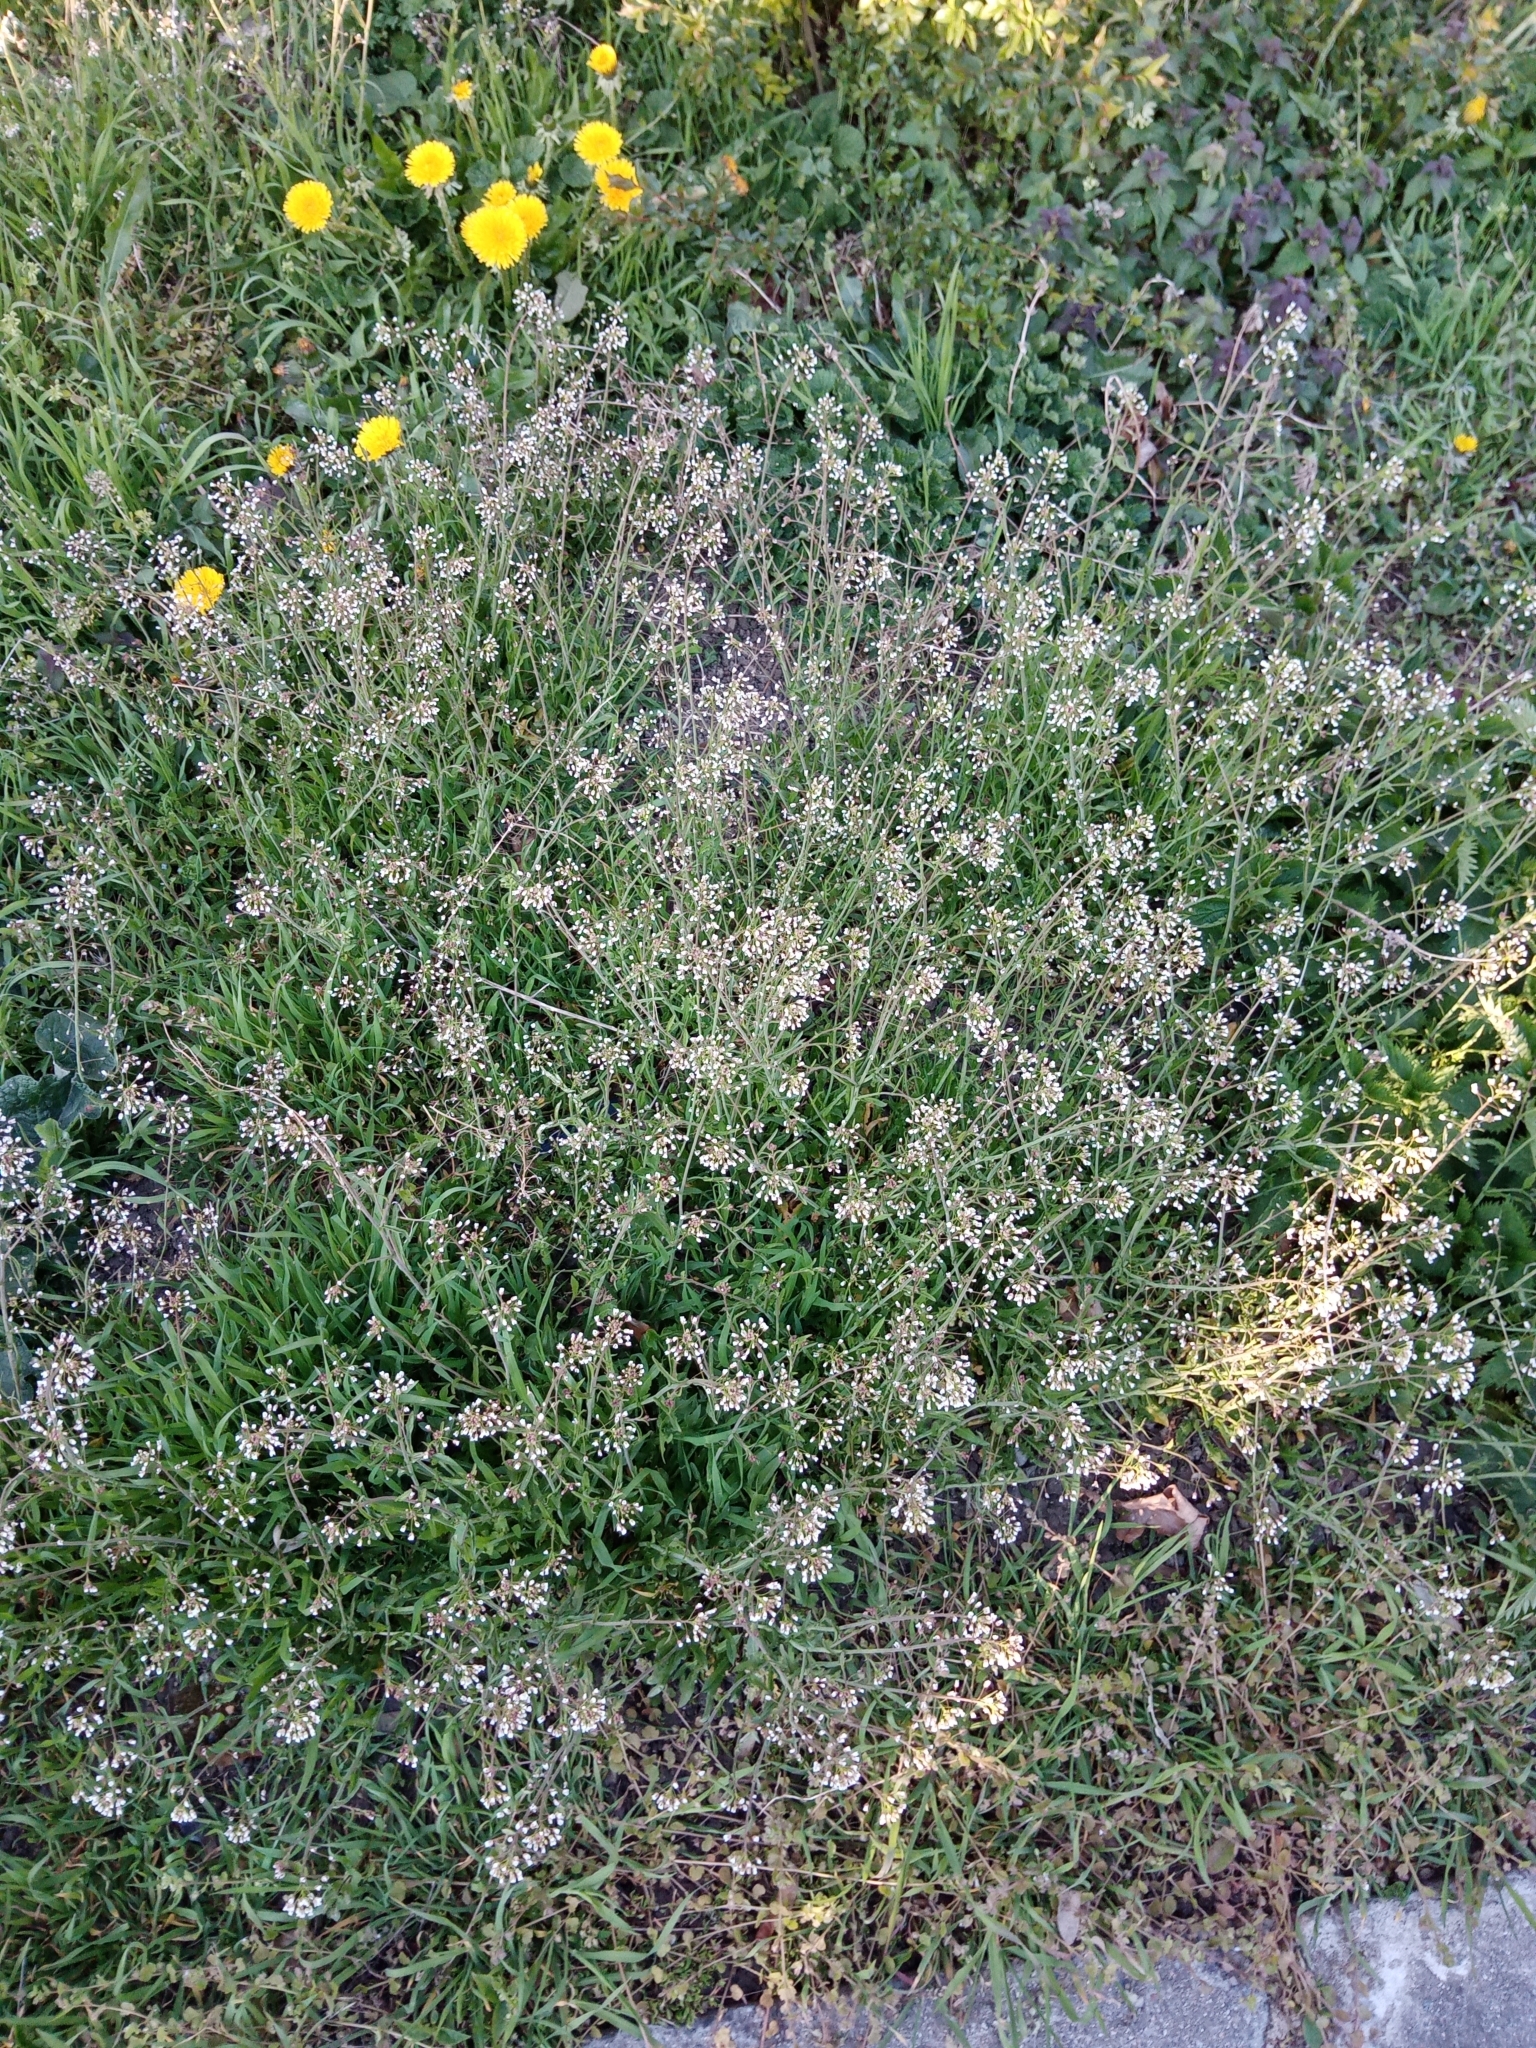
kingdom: Plantae
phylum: Tracheophyta
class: Magnoliopsida
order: Brassicales
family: Brassicaceae
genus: Capsella
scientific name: Capsella bursa-pastoris
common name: Shepherd's purse
